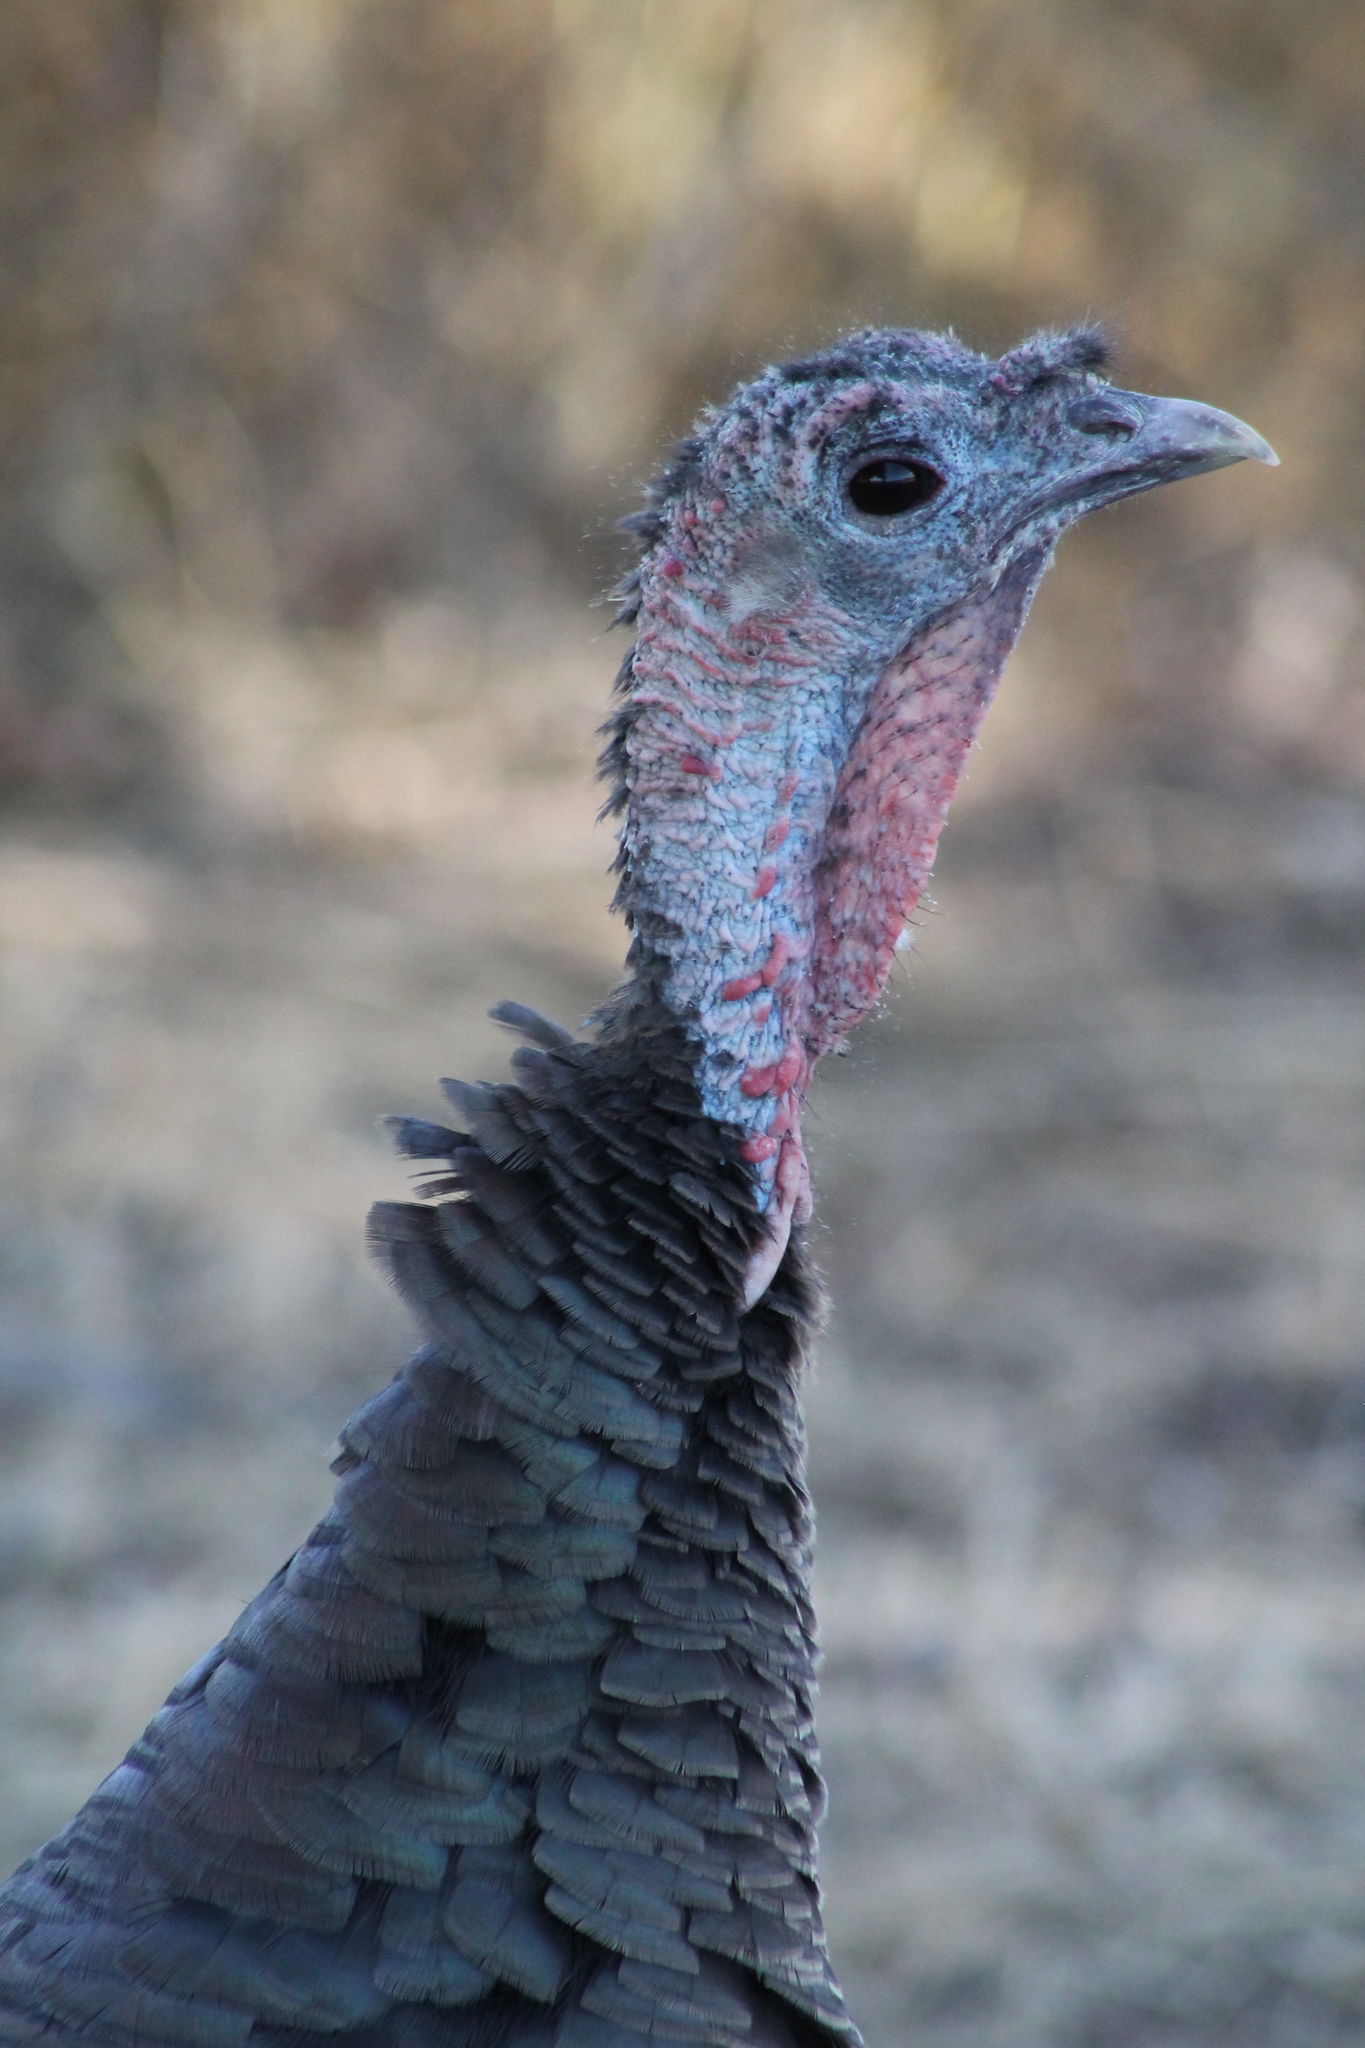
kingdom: Animalia
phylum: Chordata
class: Aves
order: Galliformes
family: Phasianidae
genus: Meleagris
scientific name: Meleagris gallopavo
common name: Wild turkey
